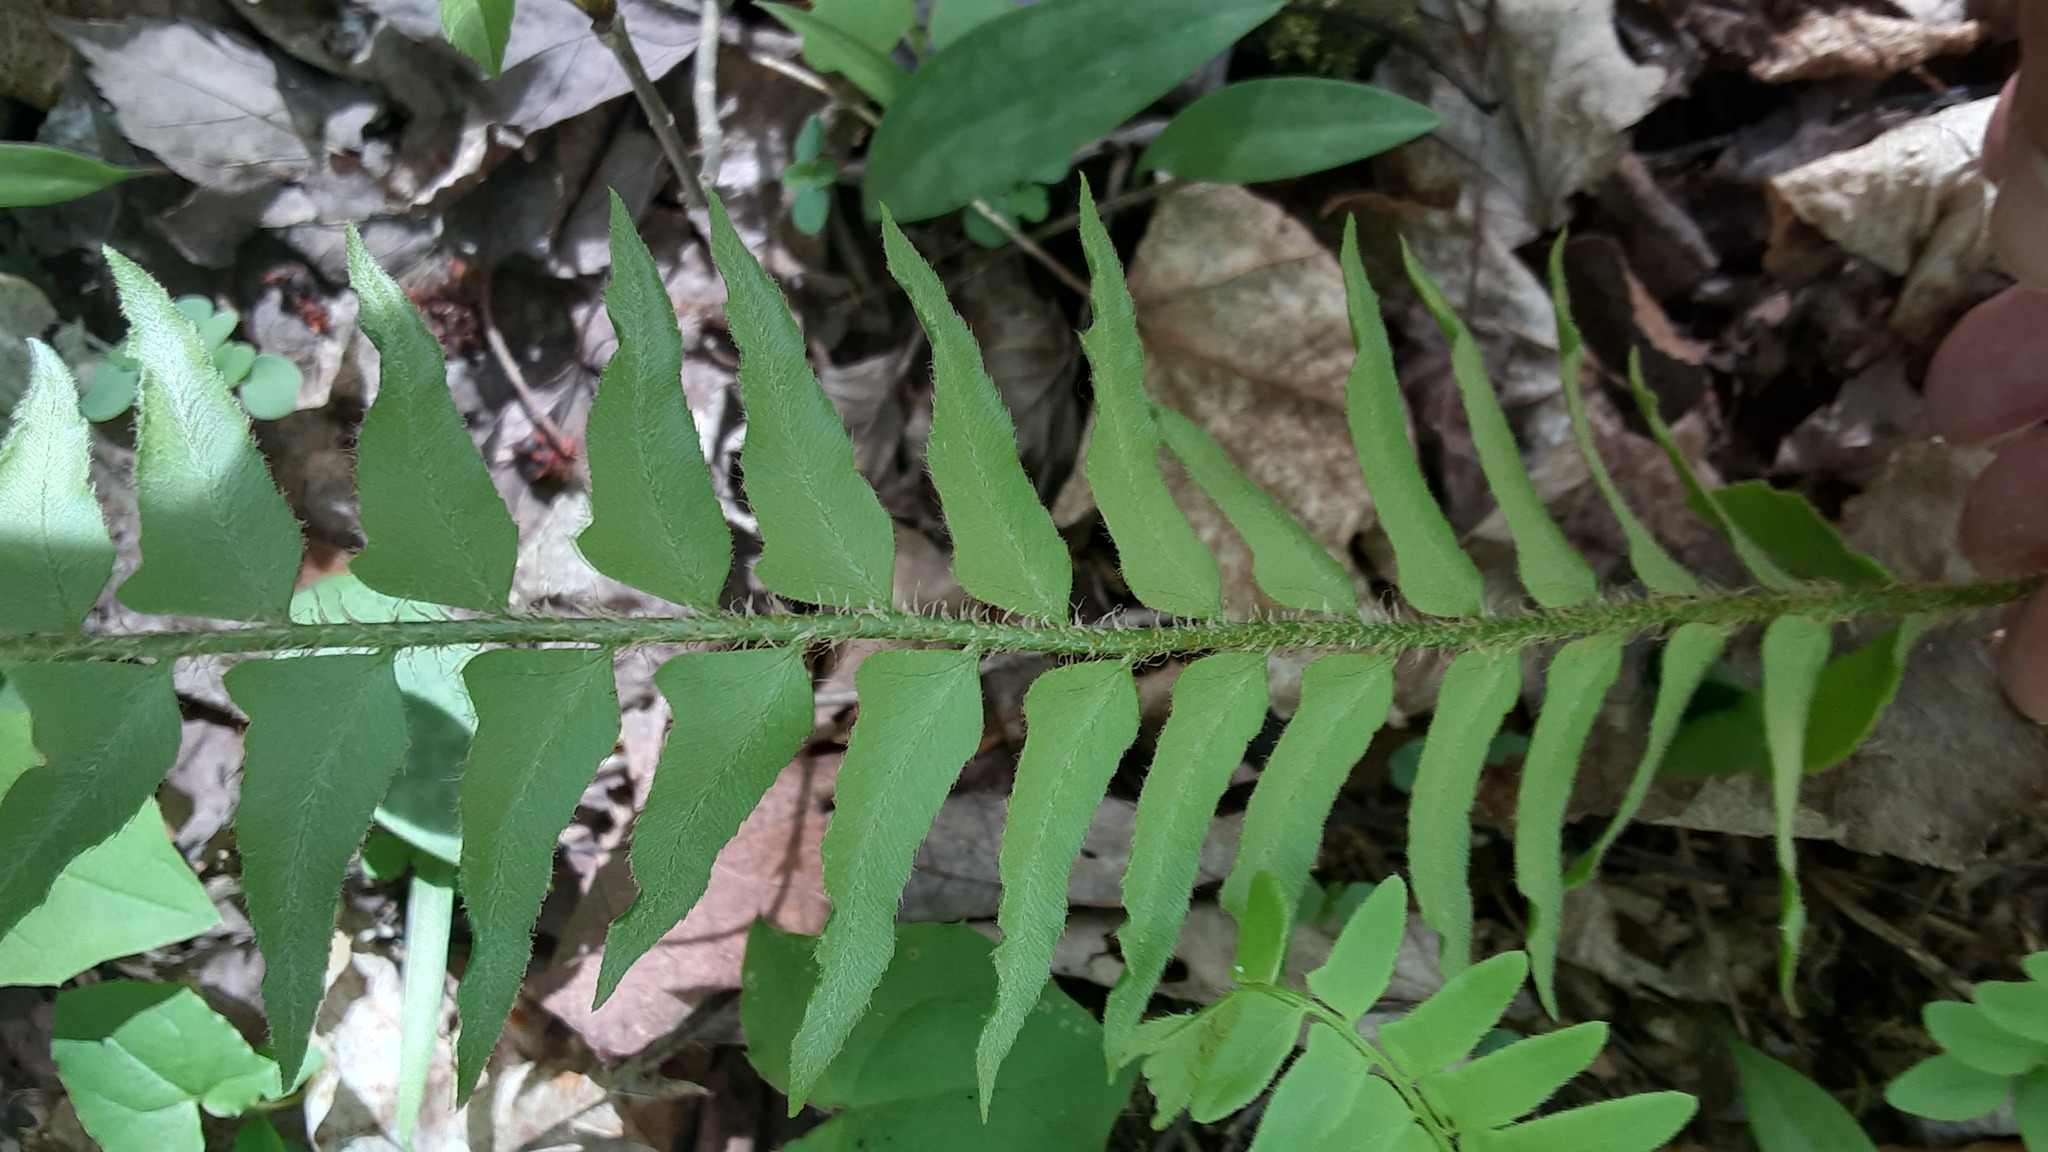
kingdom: Plantae
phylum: Tracheophyta
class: Polypodiopsida
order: Polypodiales
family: Dryopteridaceae
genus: Polystichum
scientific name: Polystichum acrostichoides
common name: Christmas fern
